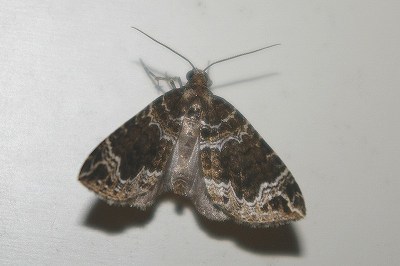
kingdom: Animalia
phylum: Arthropoda
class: Insecta
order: Lepidoptera
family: Geometridae
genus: Lampropteryx
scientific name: Lampropteryx otregiata
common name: Devon carpet
